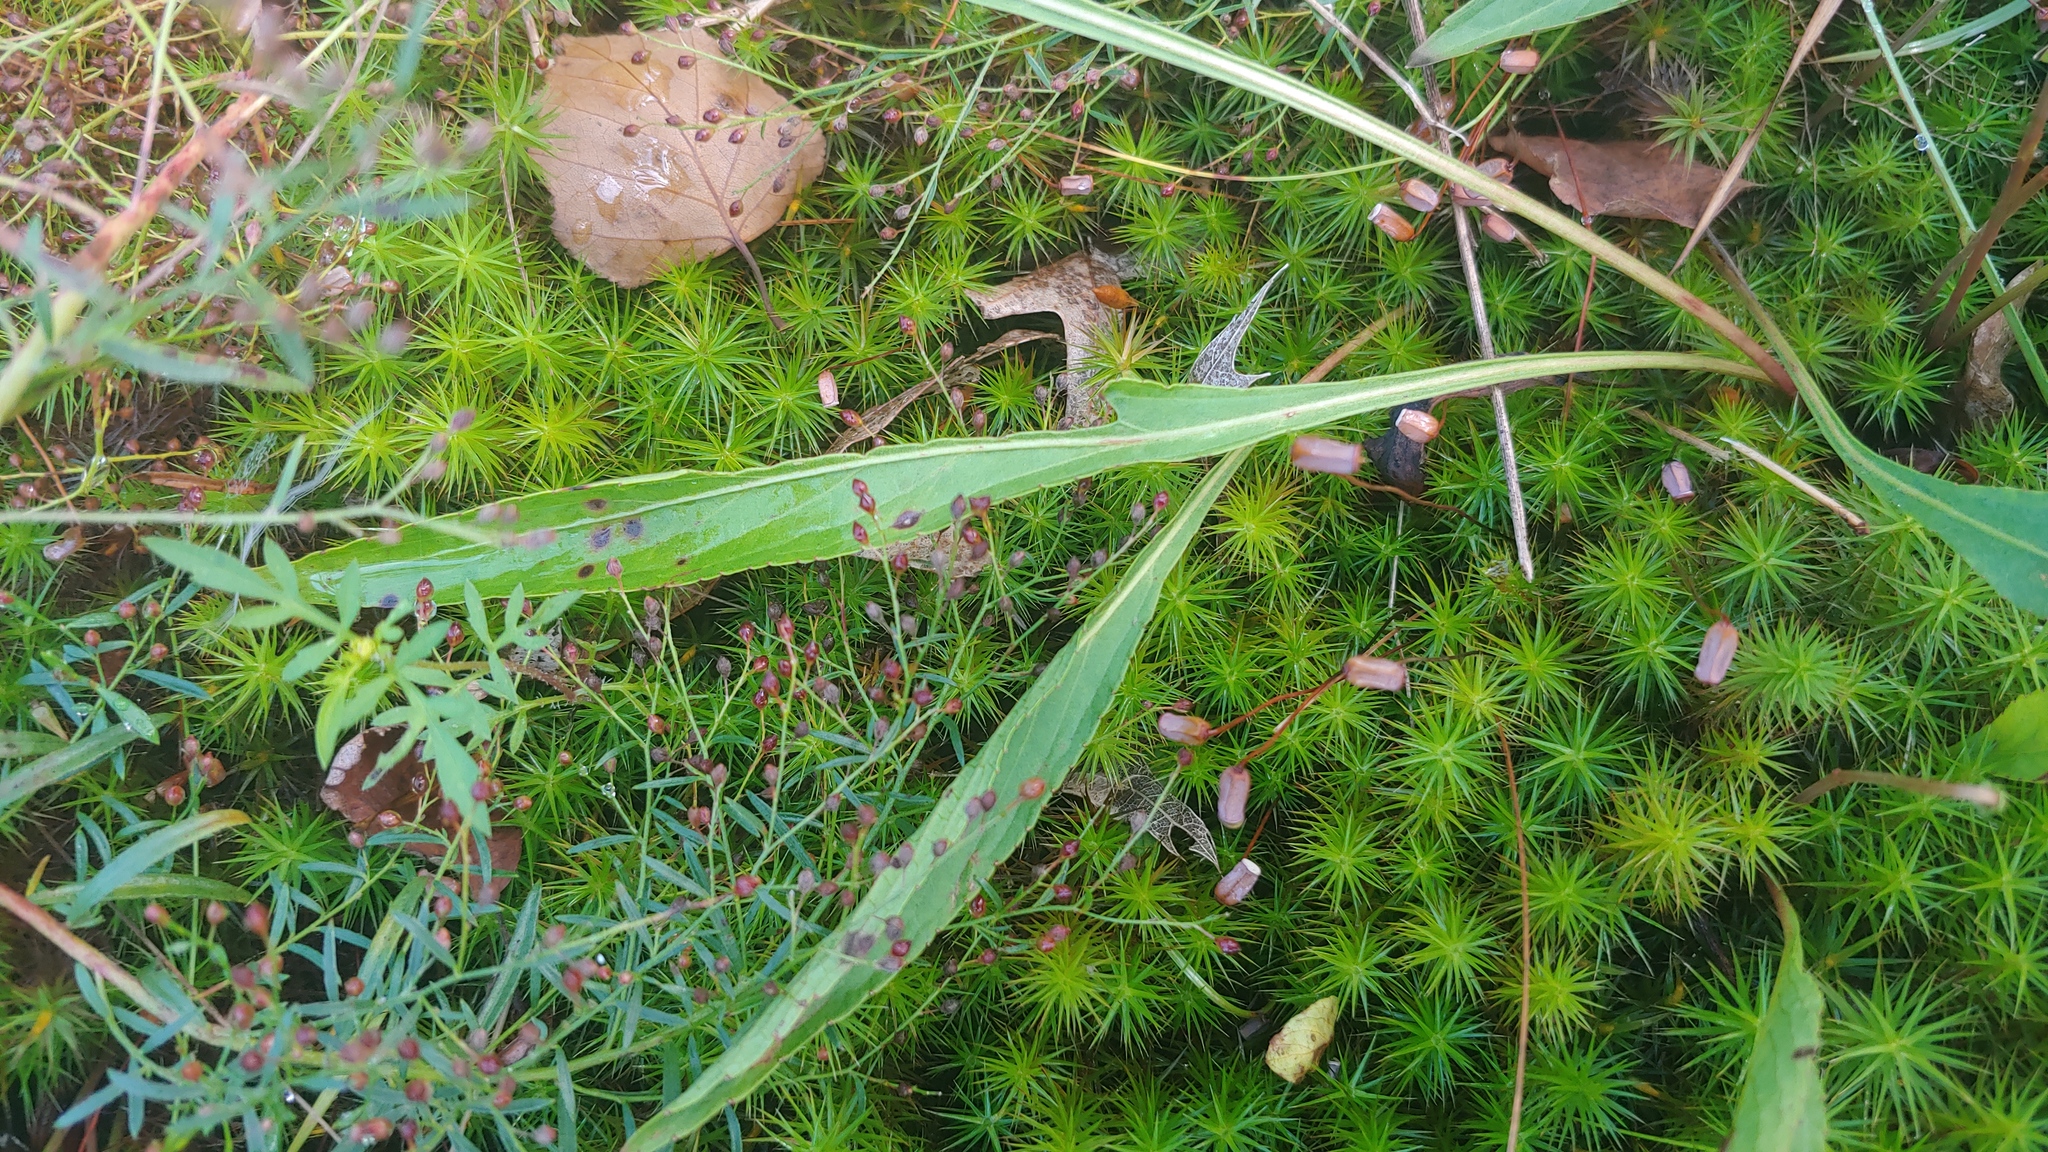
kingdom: Plantae
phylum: Tracheophyta
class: Magnoliopsida
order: Malpighiales
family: Violaceae
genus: Viola
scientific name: Viola lanceolata
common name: Bog white violet
